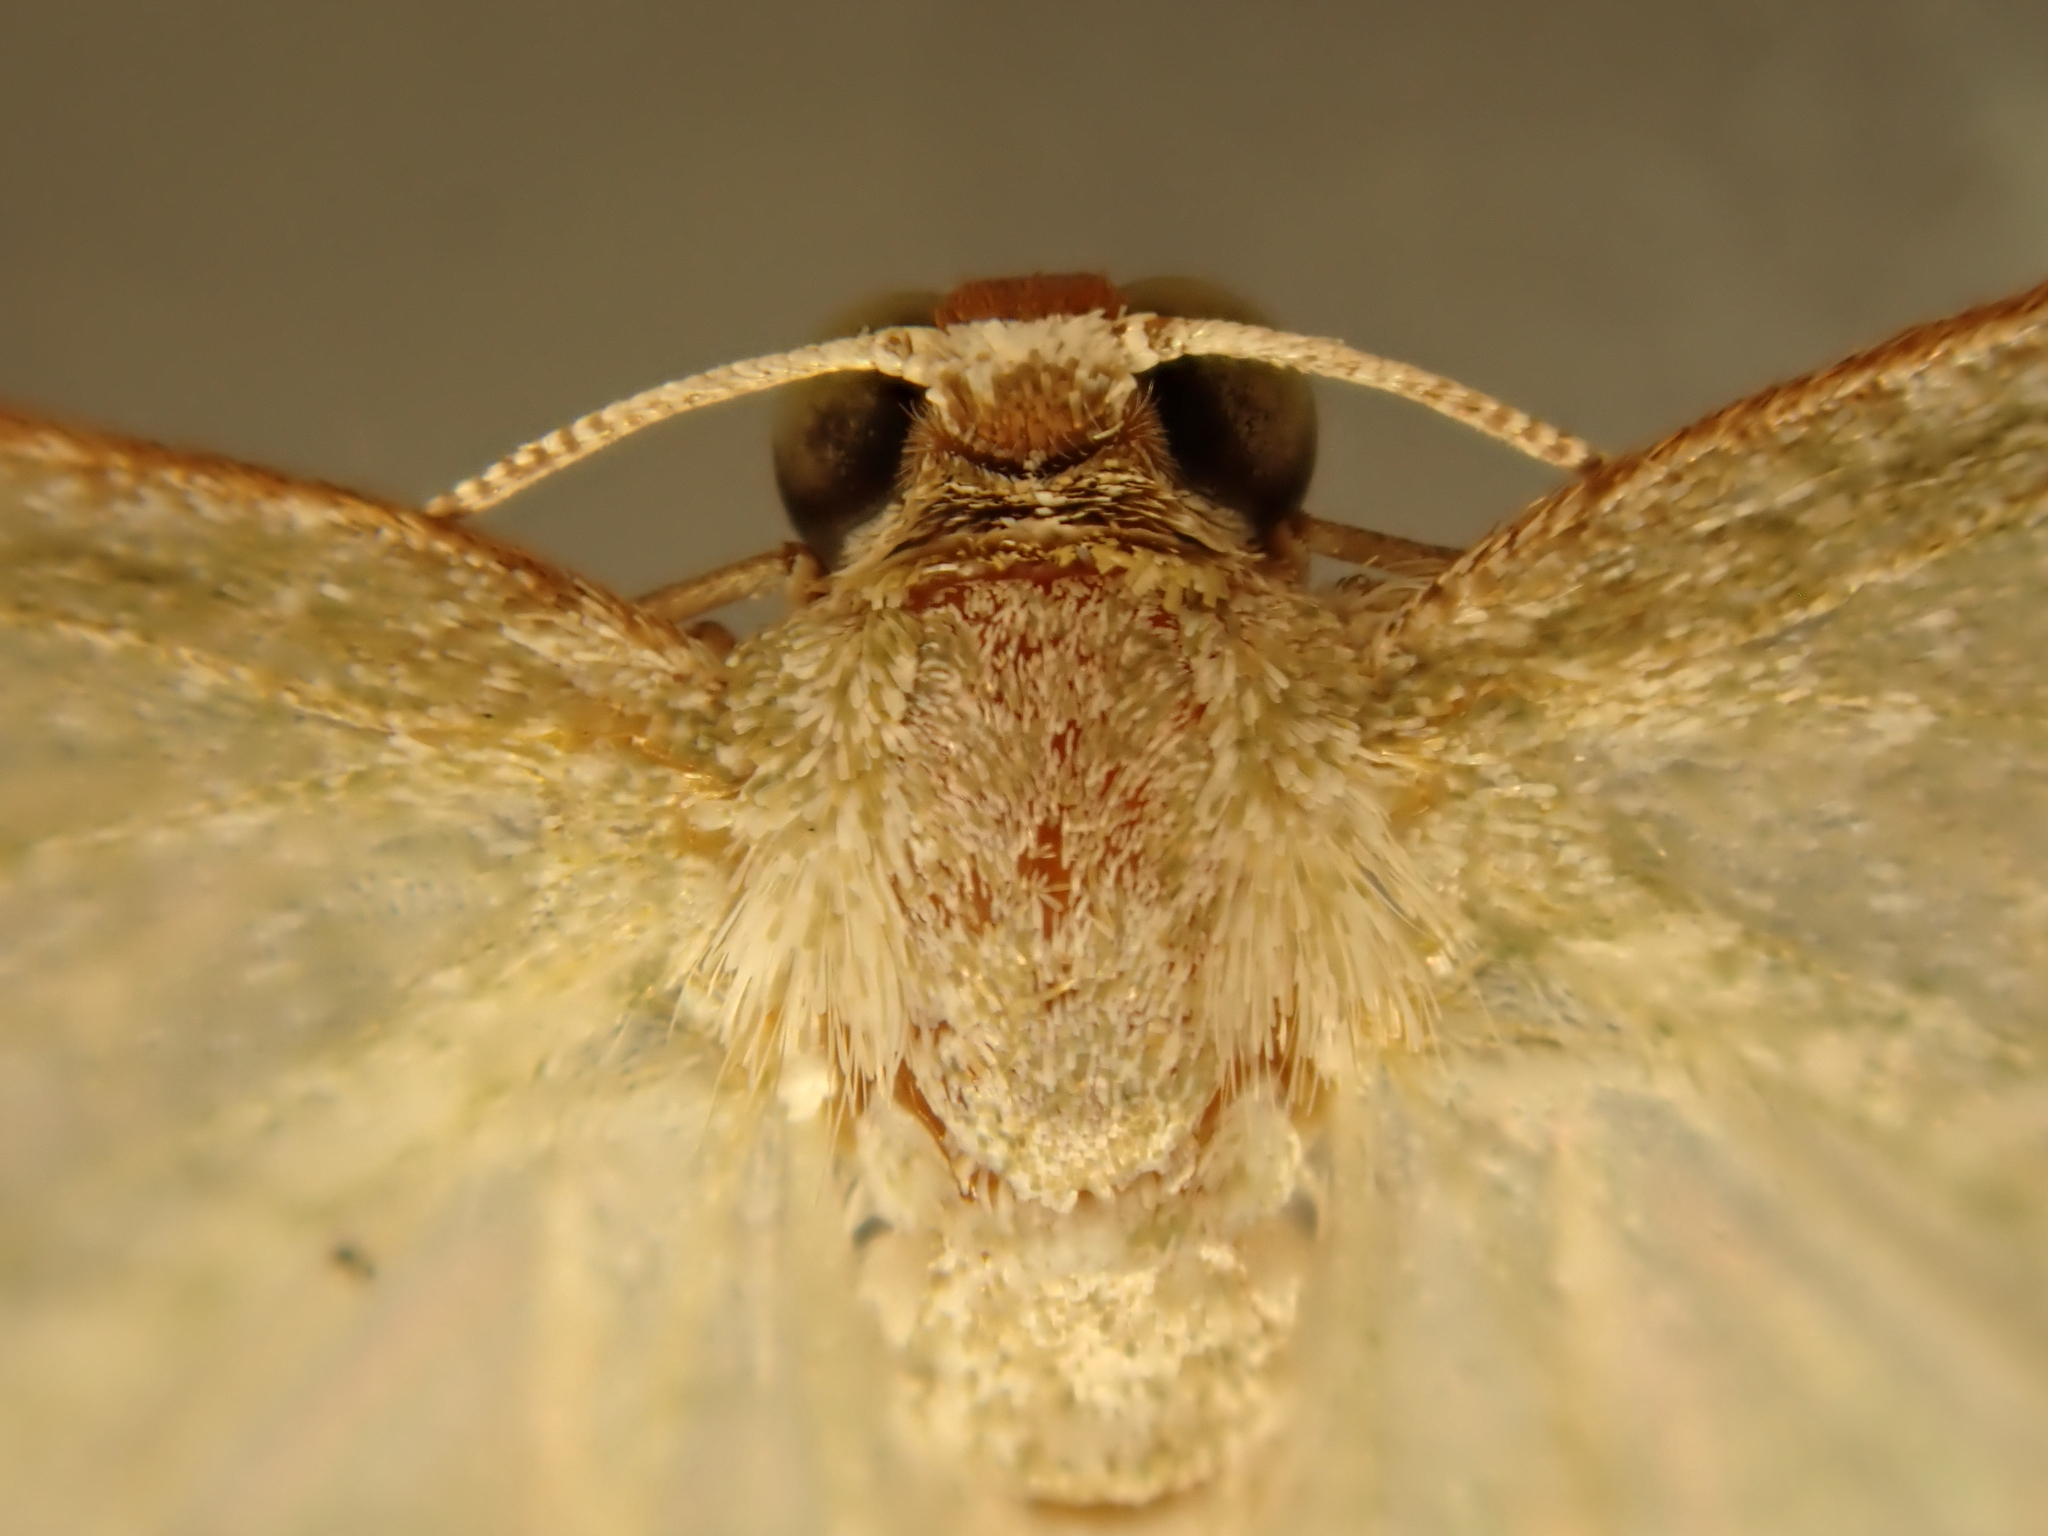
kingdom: Animalia
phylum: Arthropoda
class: Insecta
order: Lepidoptera
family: Geometridae
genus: Poecilasthena
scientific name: Poecilasthena pulchraria
